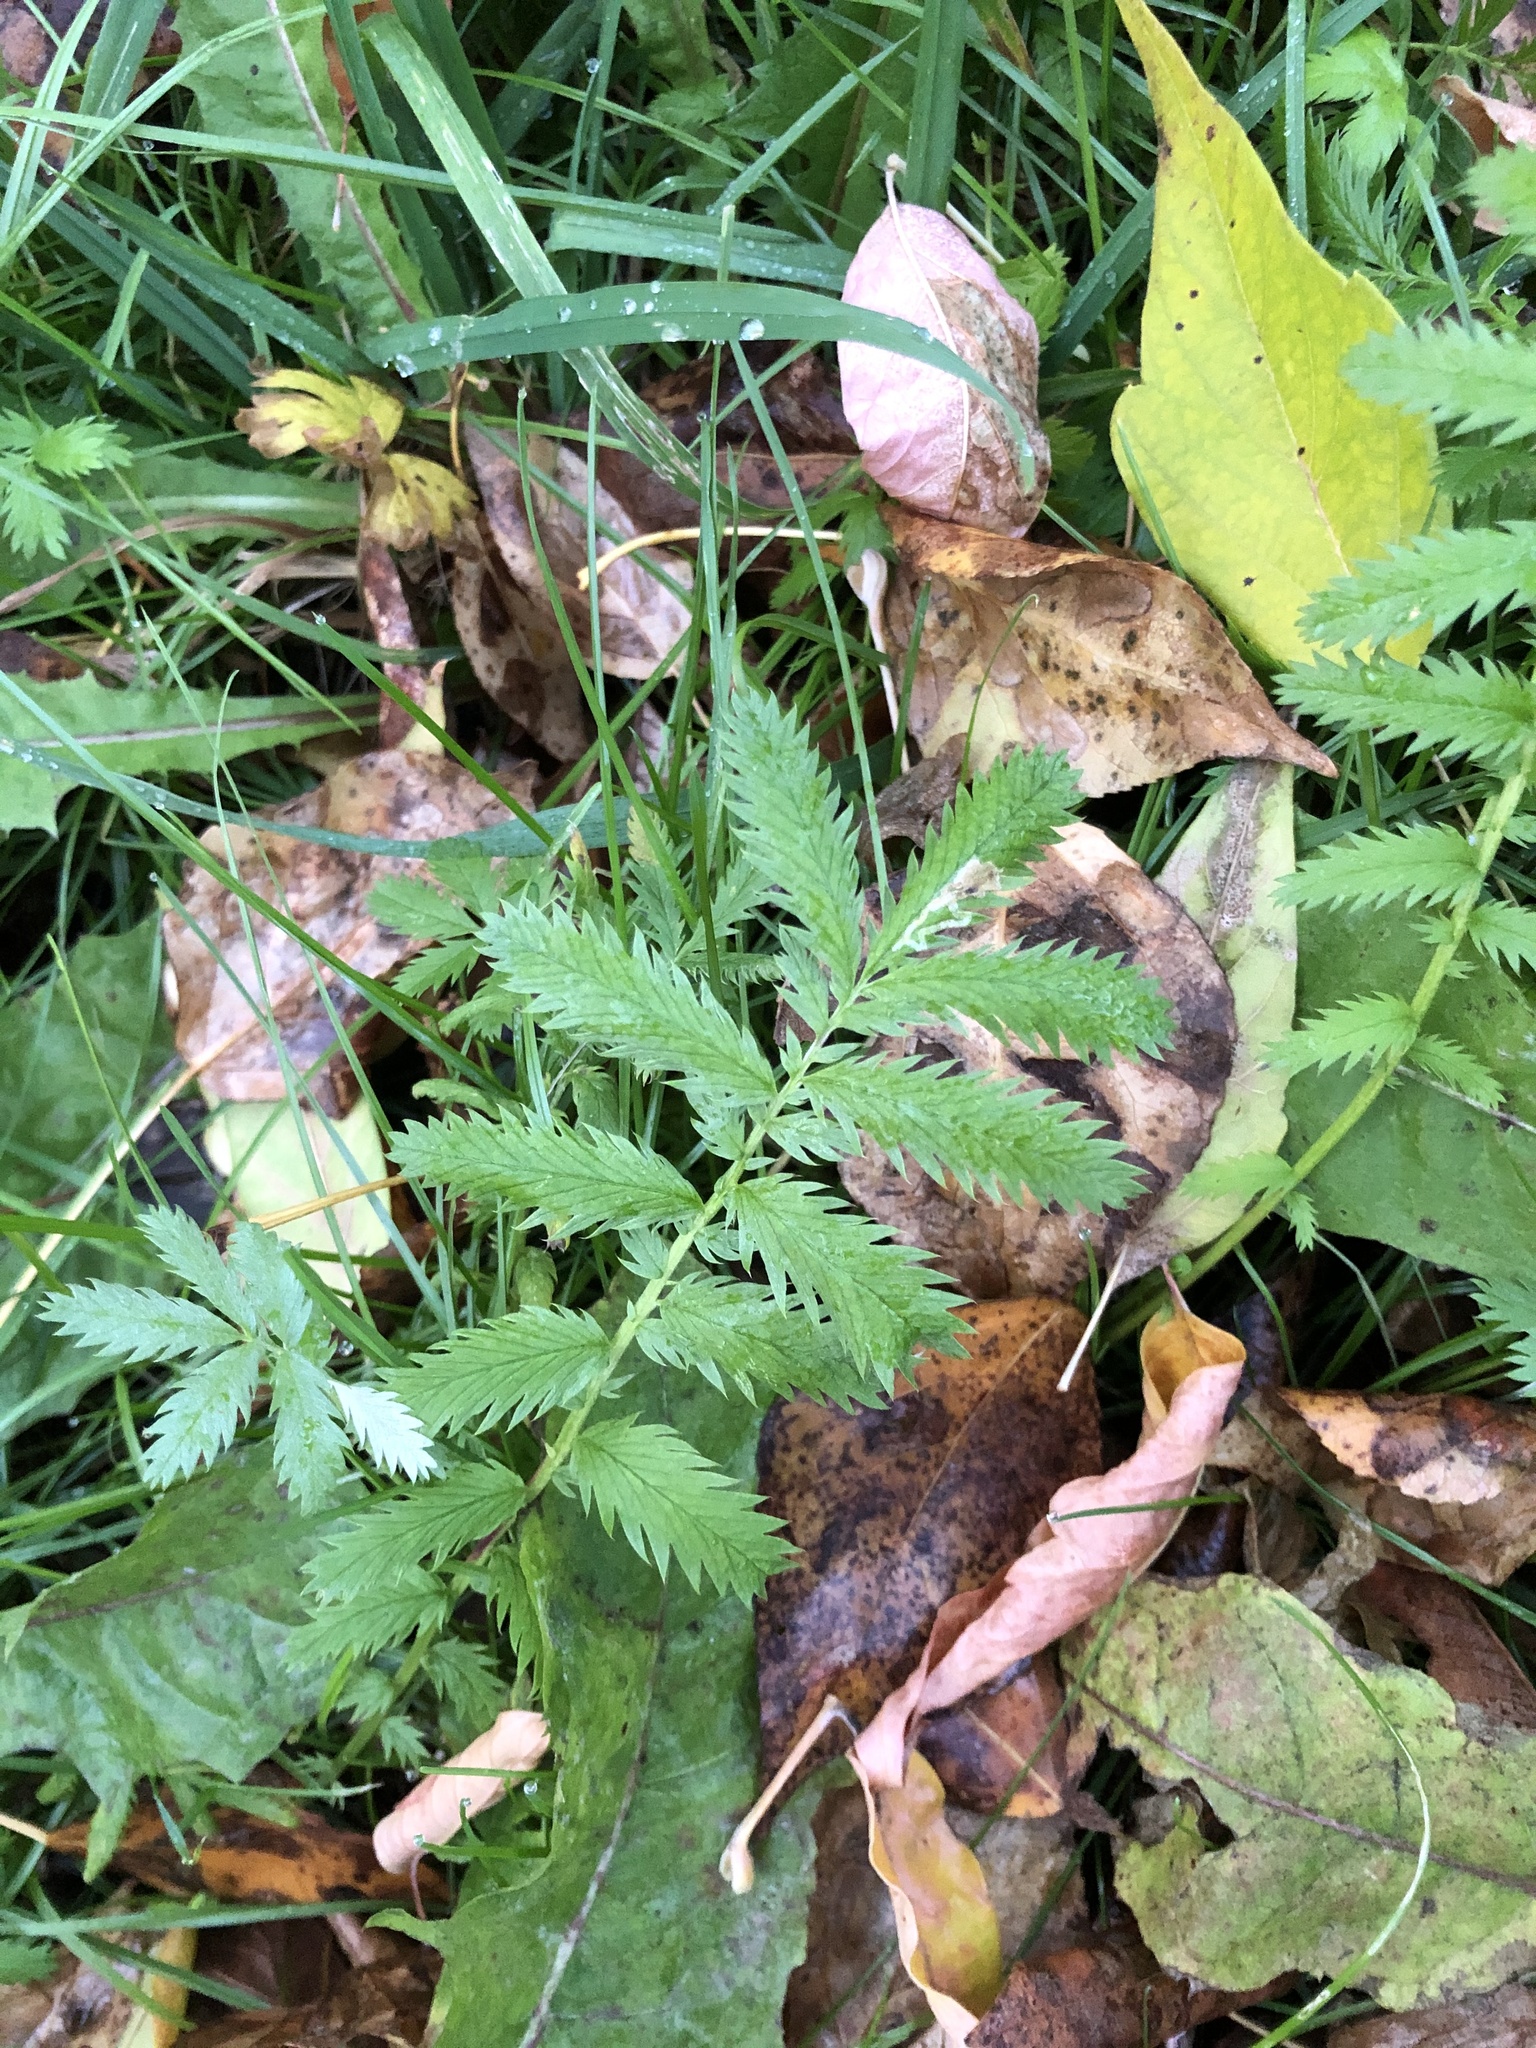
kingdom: Plantae
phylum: Tracheophyta
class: Magnoliopsida
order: Rosales
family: Rosaceae
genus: Argentina
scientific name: Argentina anserina
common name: Common silverweed
